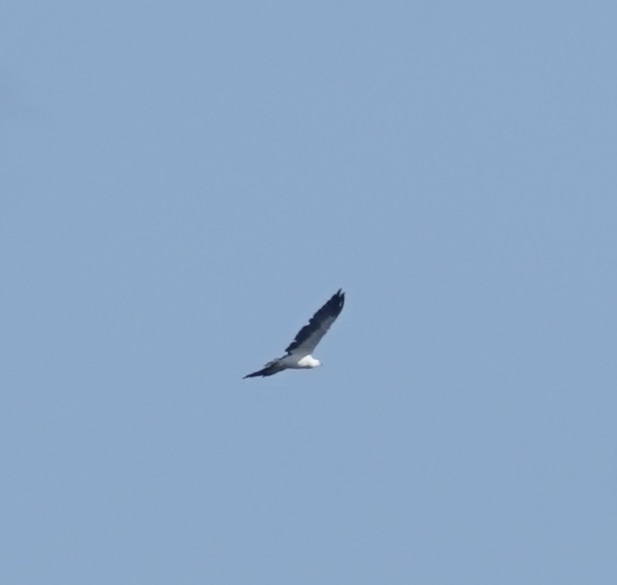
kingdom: Animalia
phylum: Chordata
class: Aves
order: Accipitriformes
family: Accipitridae
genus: Haliaeetus
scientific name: Haliaeetus leucogaster
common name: White-bellied sea eagle
